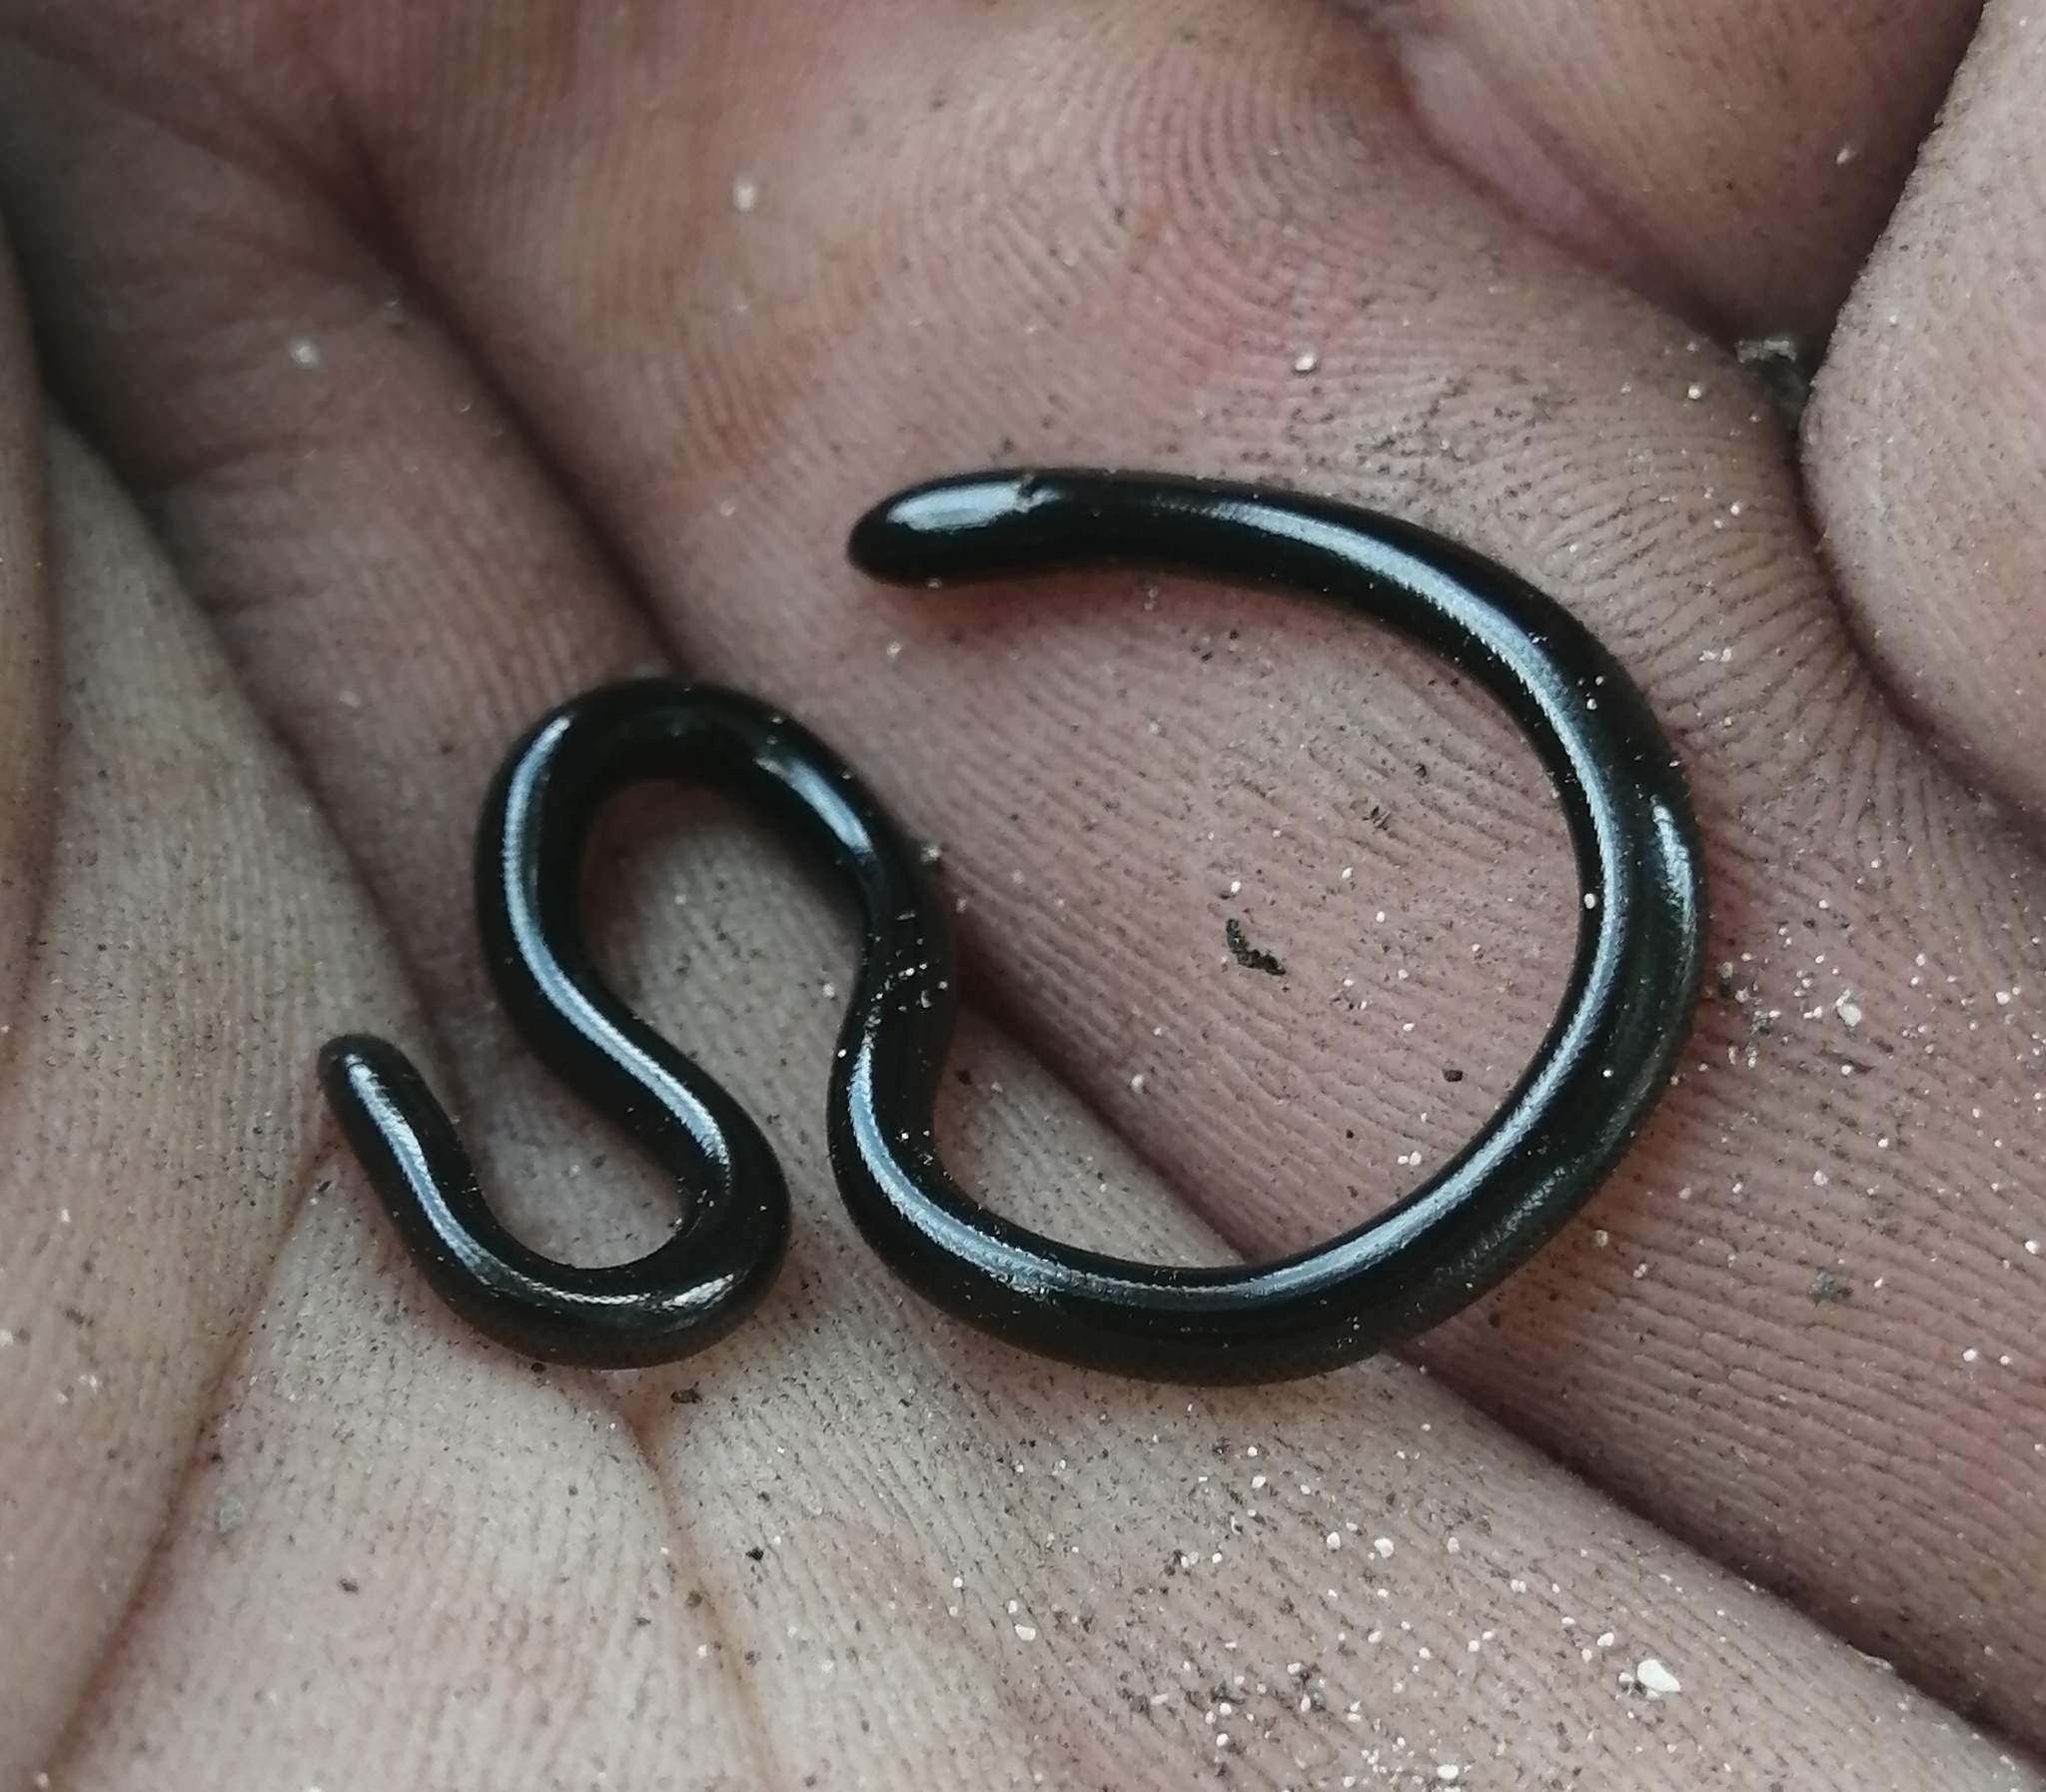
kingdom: Animalia
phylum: Chordata
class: Squamata
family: Typhlopidae
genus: Indotyphlops
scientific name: Indotyphlops braminus
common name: Brahminy blindsnake
